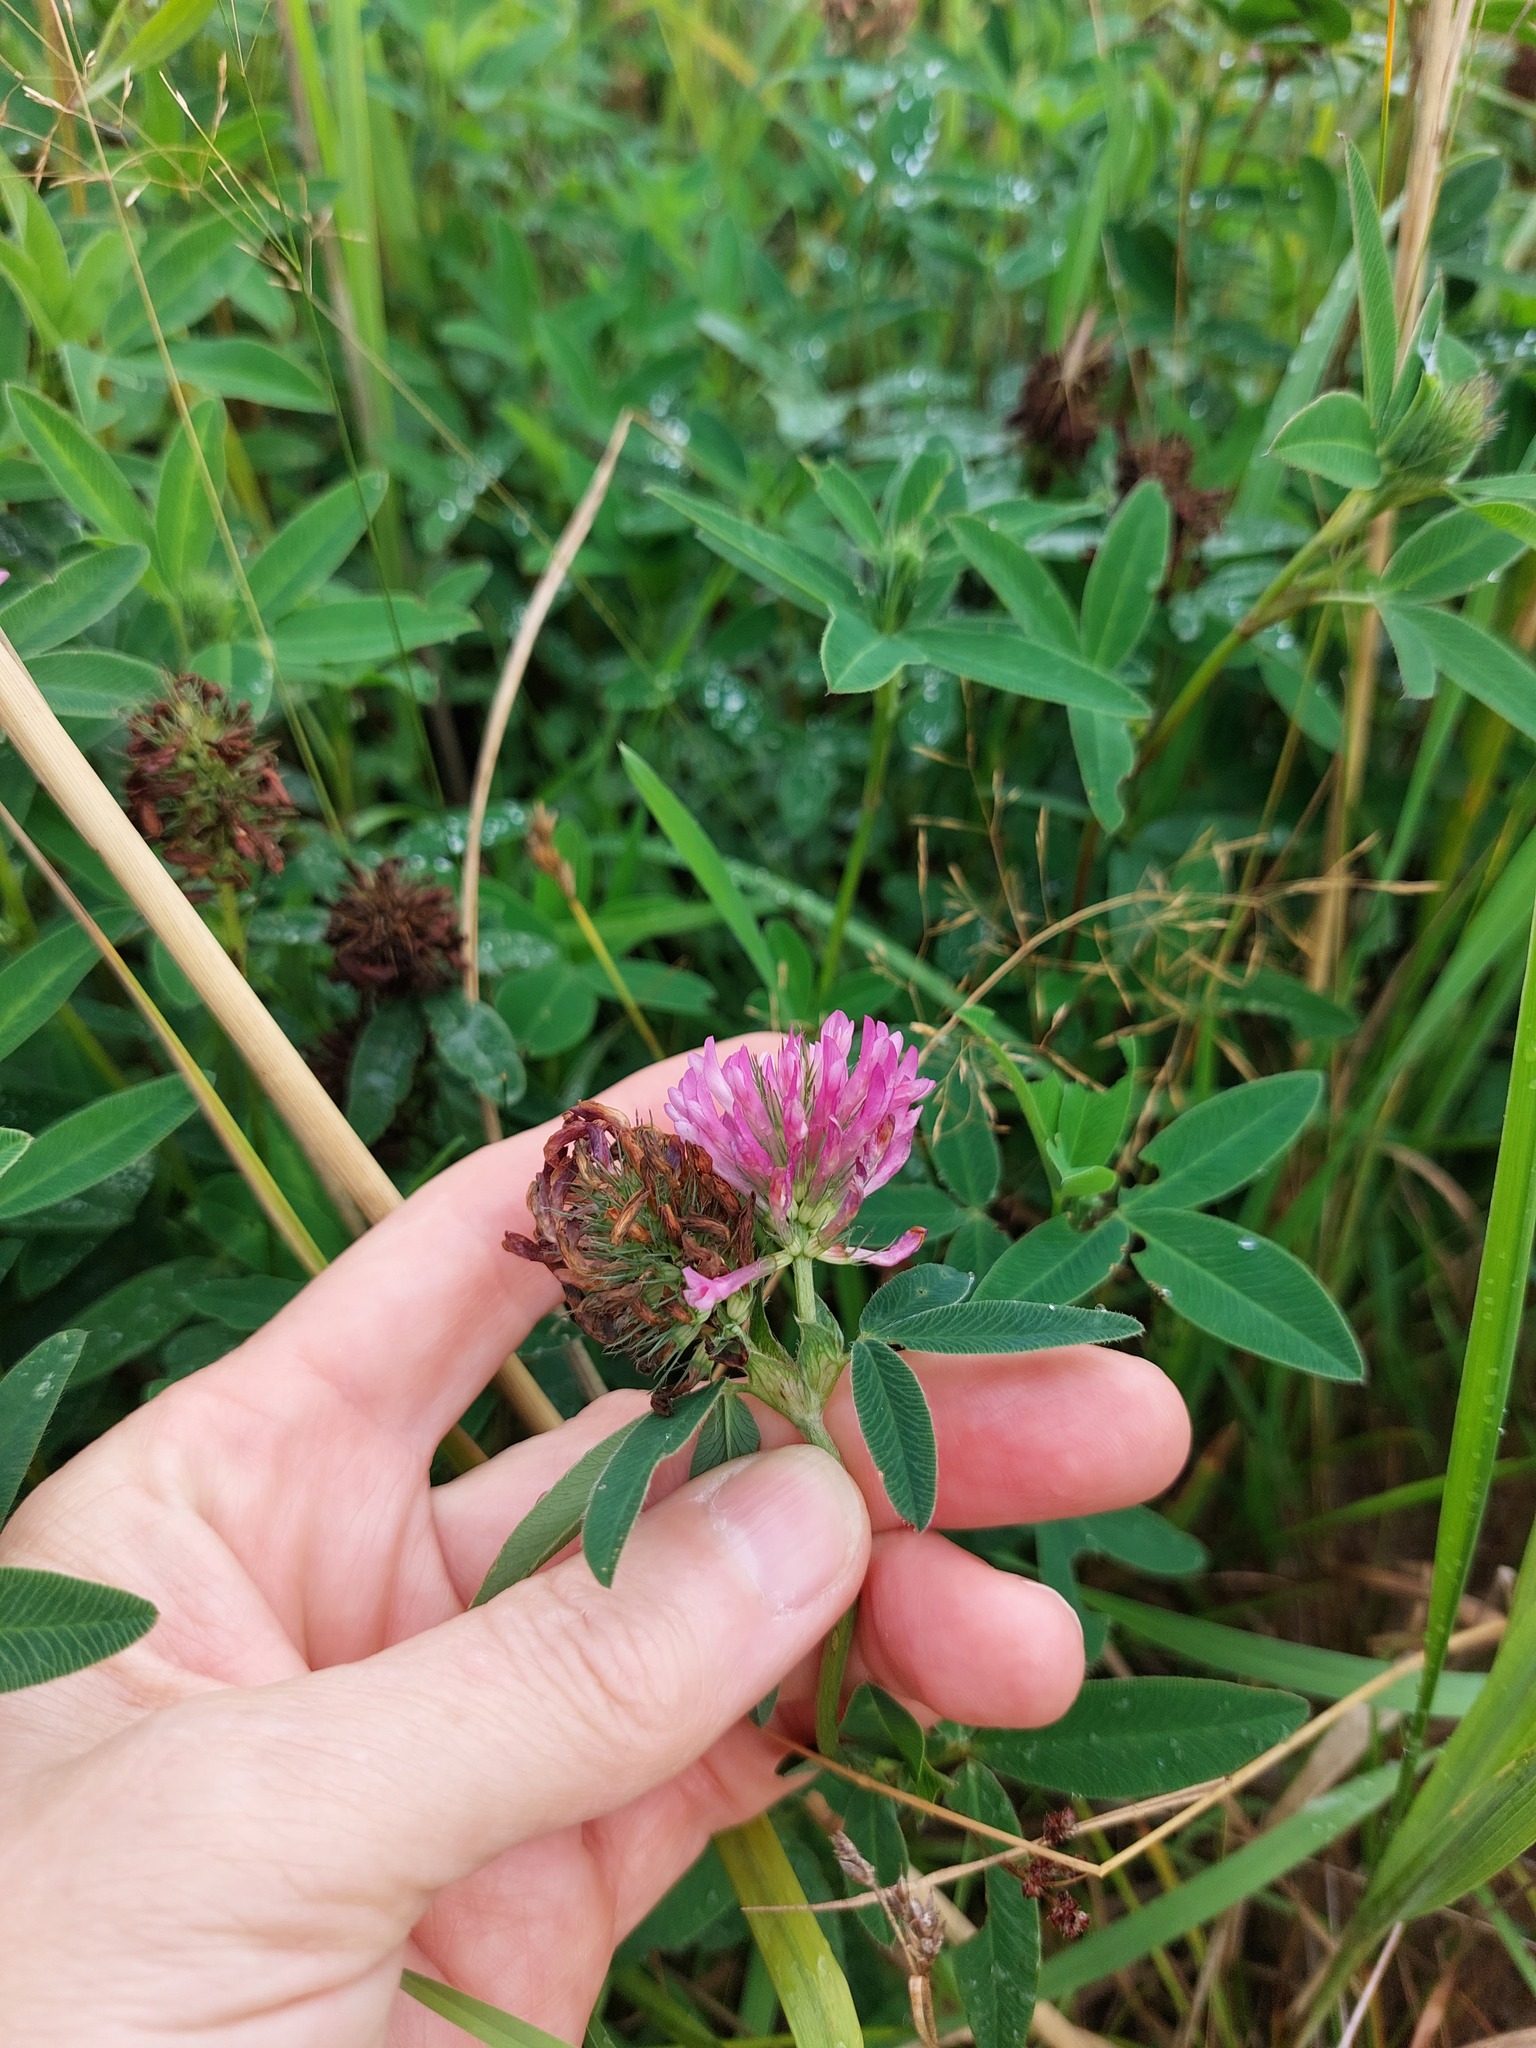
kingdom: Plantae
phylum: Tracheophyta
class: Magnoliopsida
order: Fabales
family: Fabaceae
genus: Trifolium
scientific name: Trifolium medium
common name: Zigzag clover
